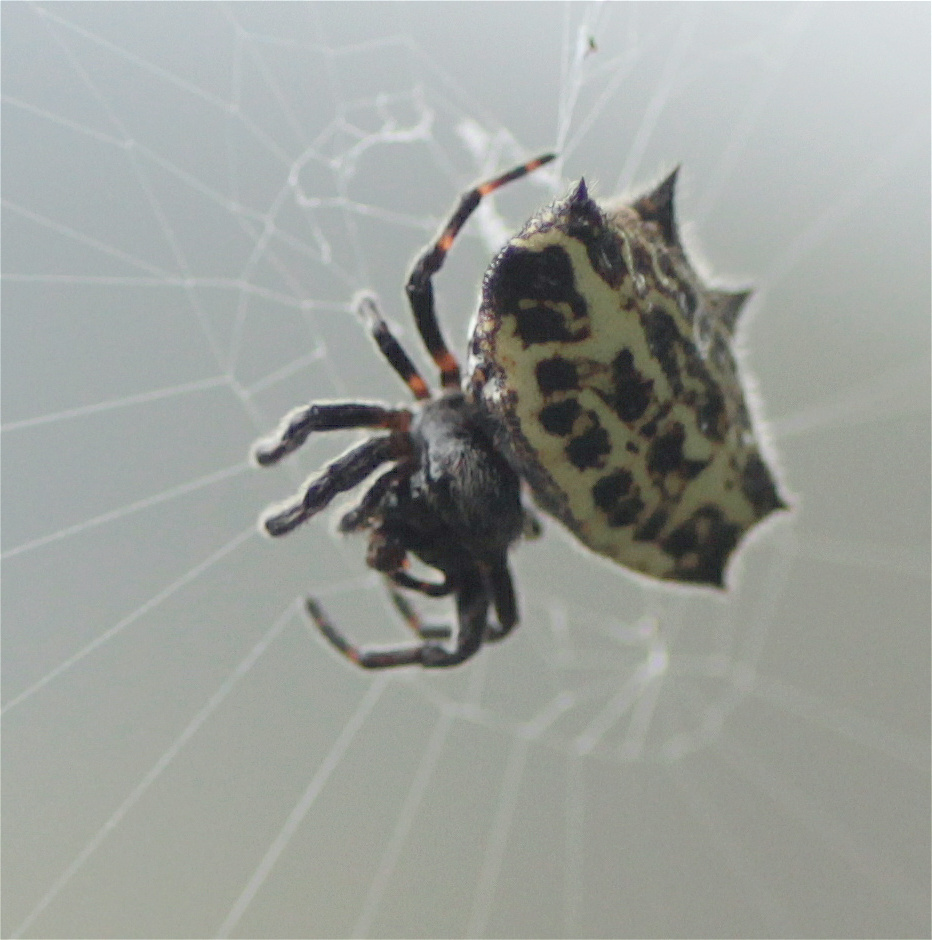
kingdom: Animalia
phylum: Arthropoda
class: Arachnida
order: Araneae
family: Araneidae
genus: Gasteracantha
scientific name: Gasteracantha cancriformis
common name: Orb weavers
